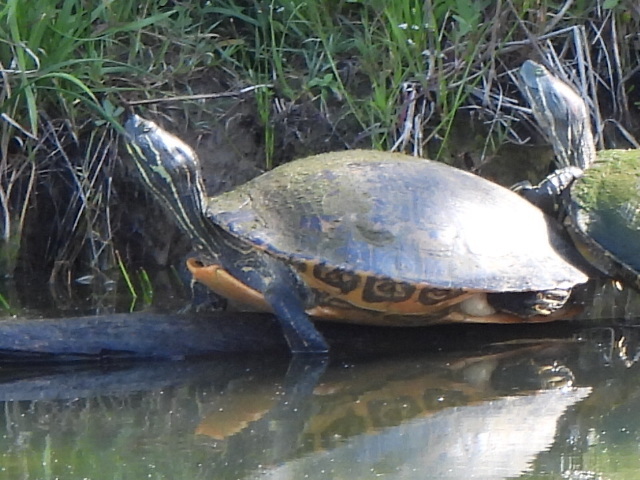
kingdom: Animalia
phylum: Chordata
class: Testudines
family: Emydidae
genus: Pseudemys
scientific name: Pseudemys concinna
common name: Eastern river cooter
